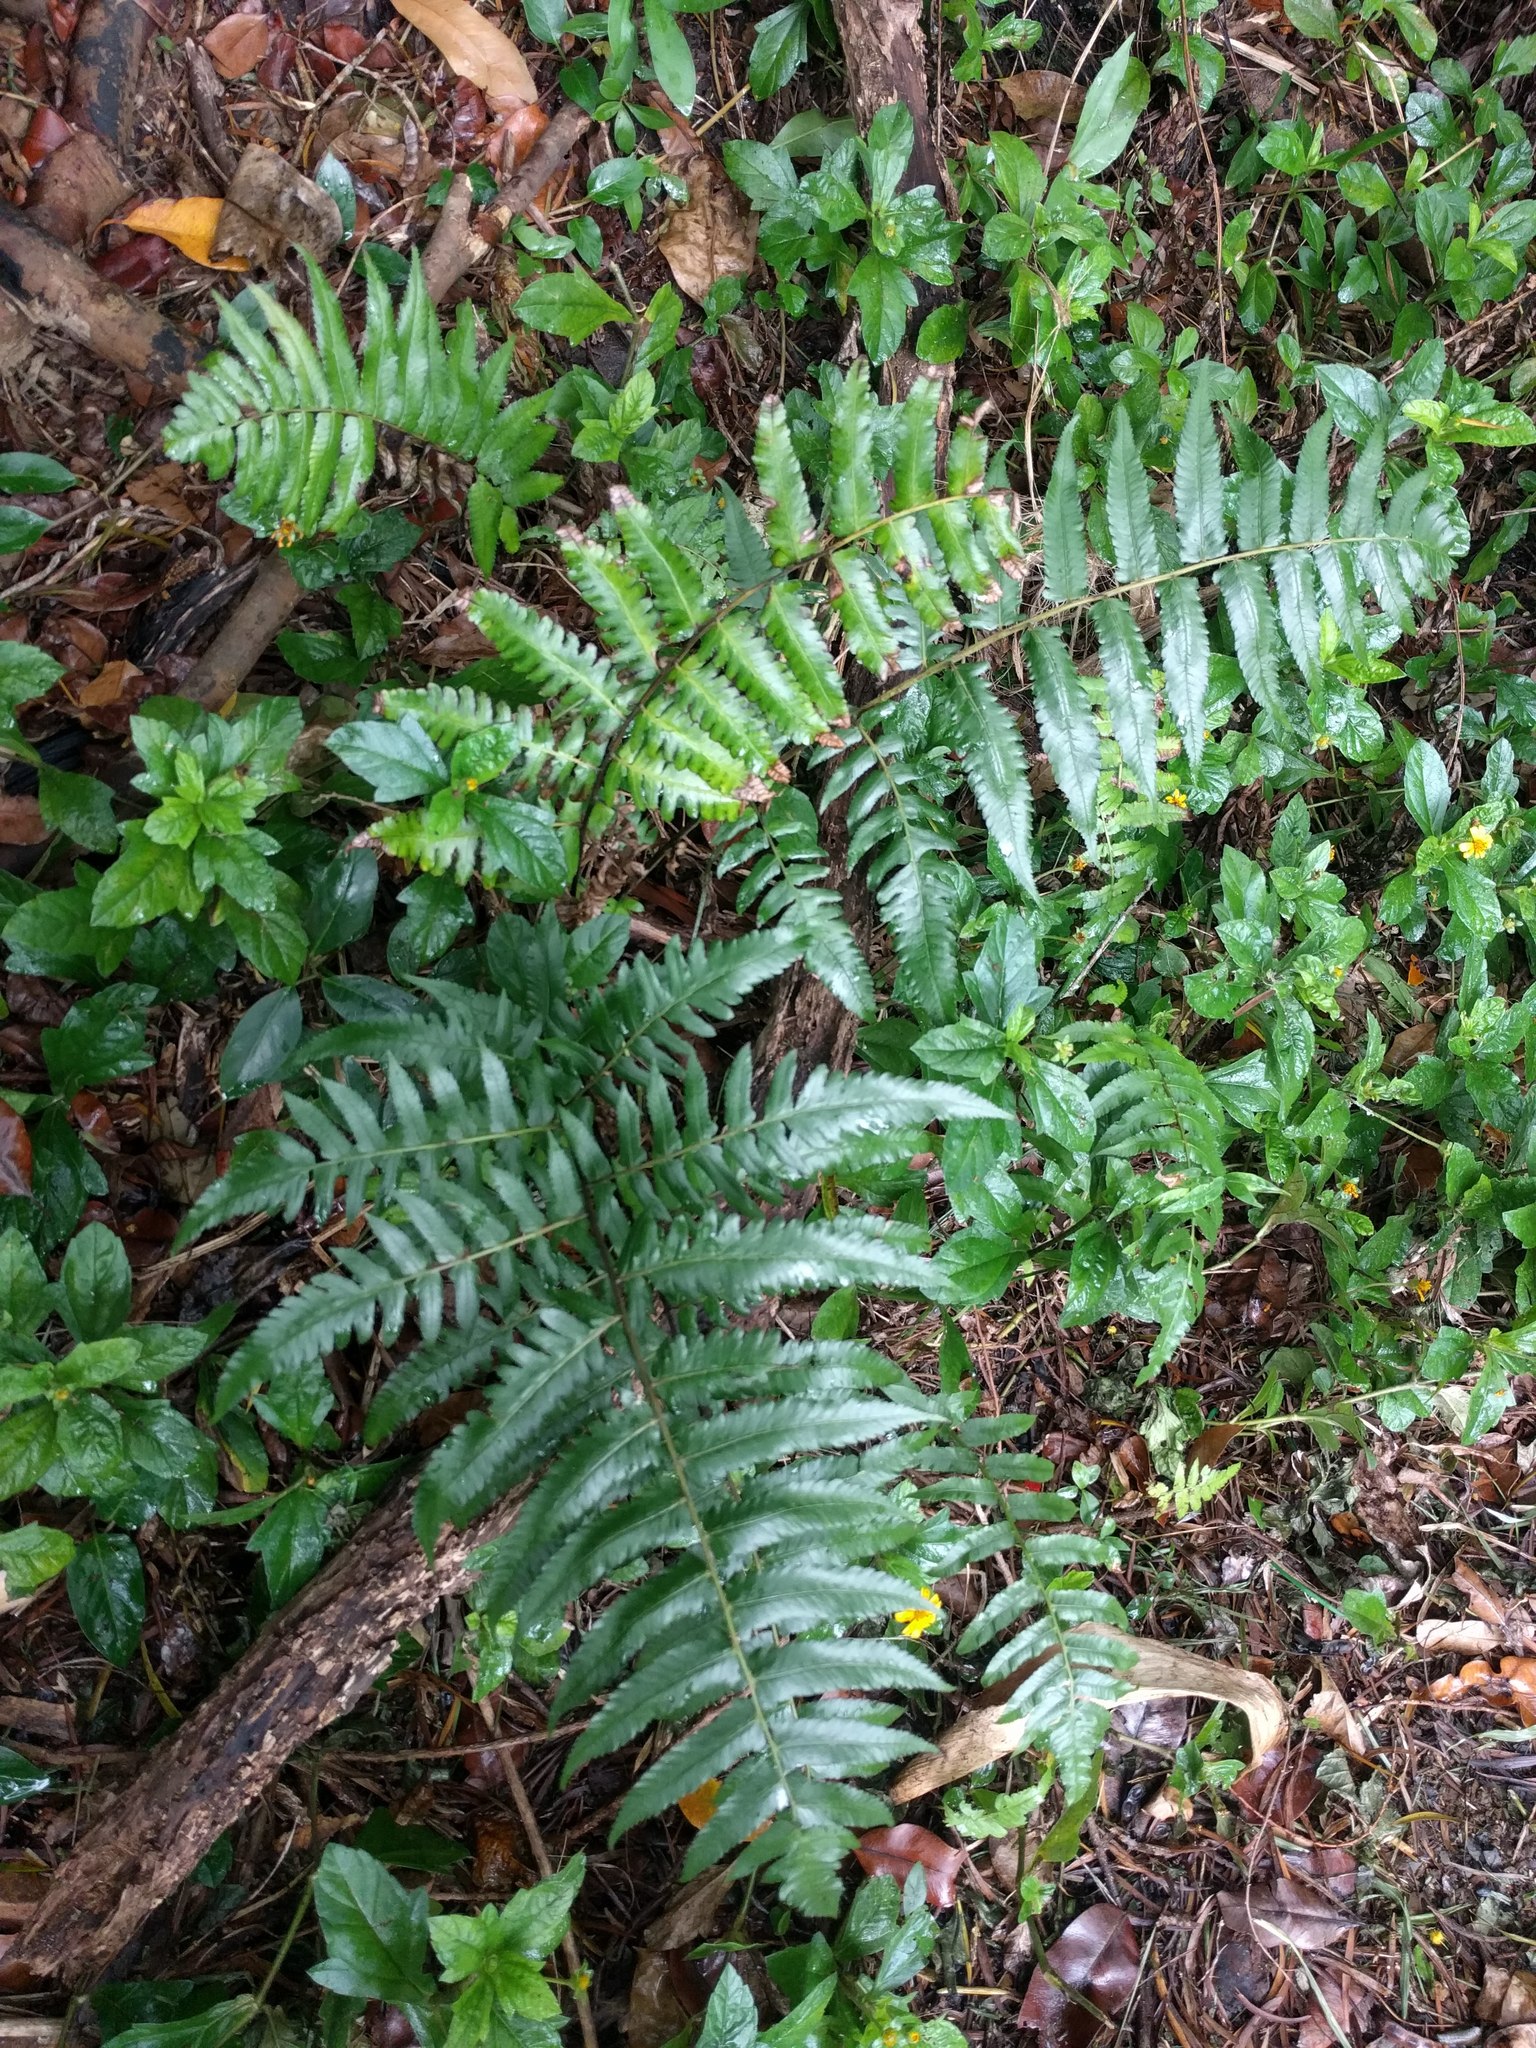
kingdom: Plantae
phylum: Tracheophyta
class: Polypodiopsida
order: Polypodiales
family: Athyriaceae
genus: Diplazium
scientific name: Diplazium esculentum
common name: Vegetable fern
